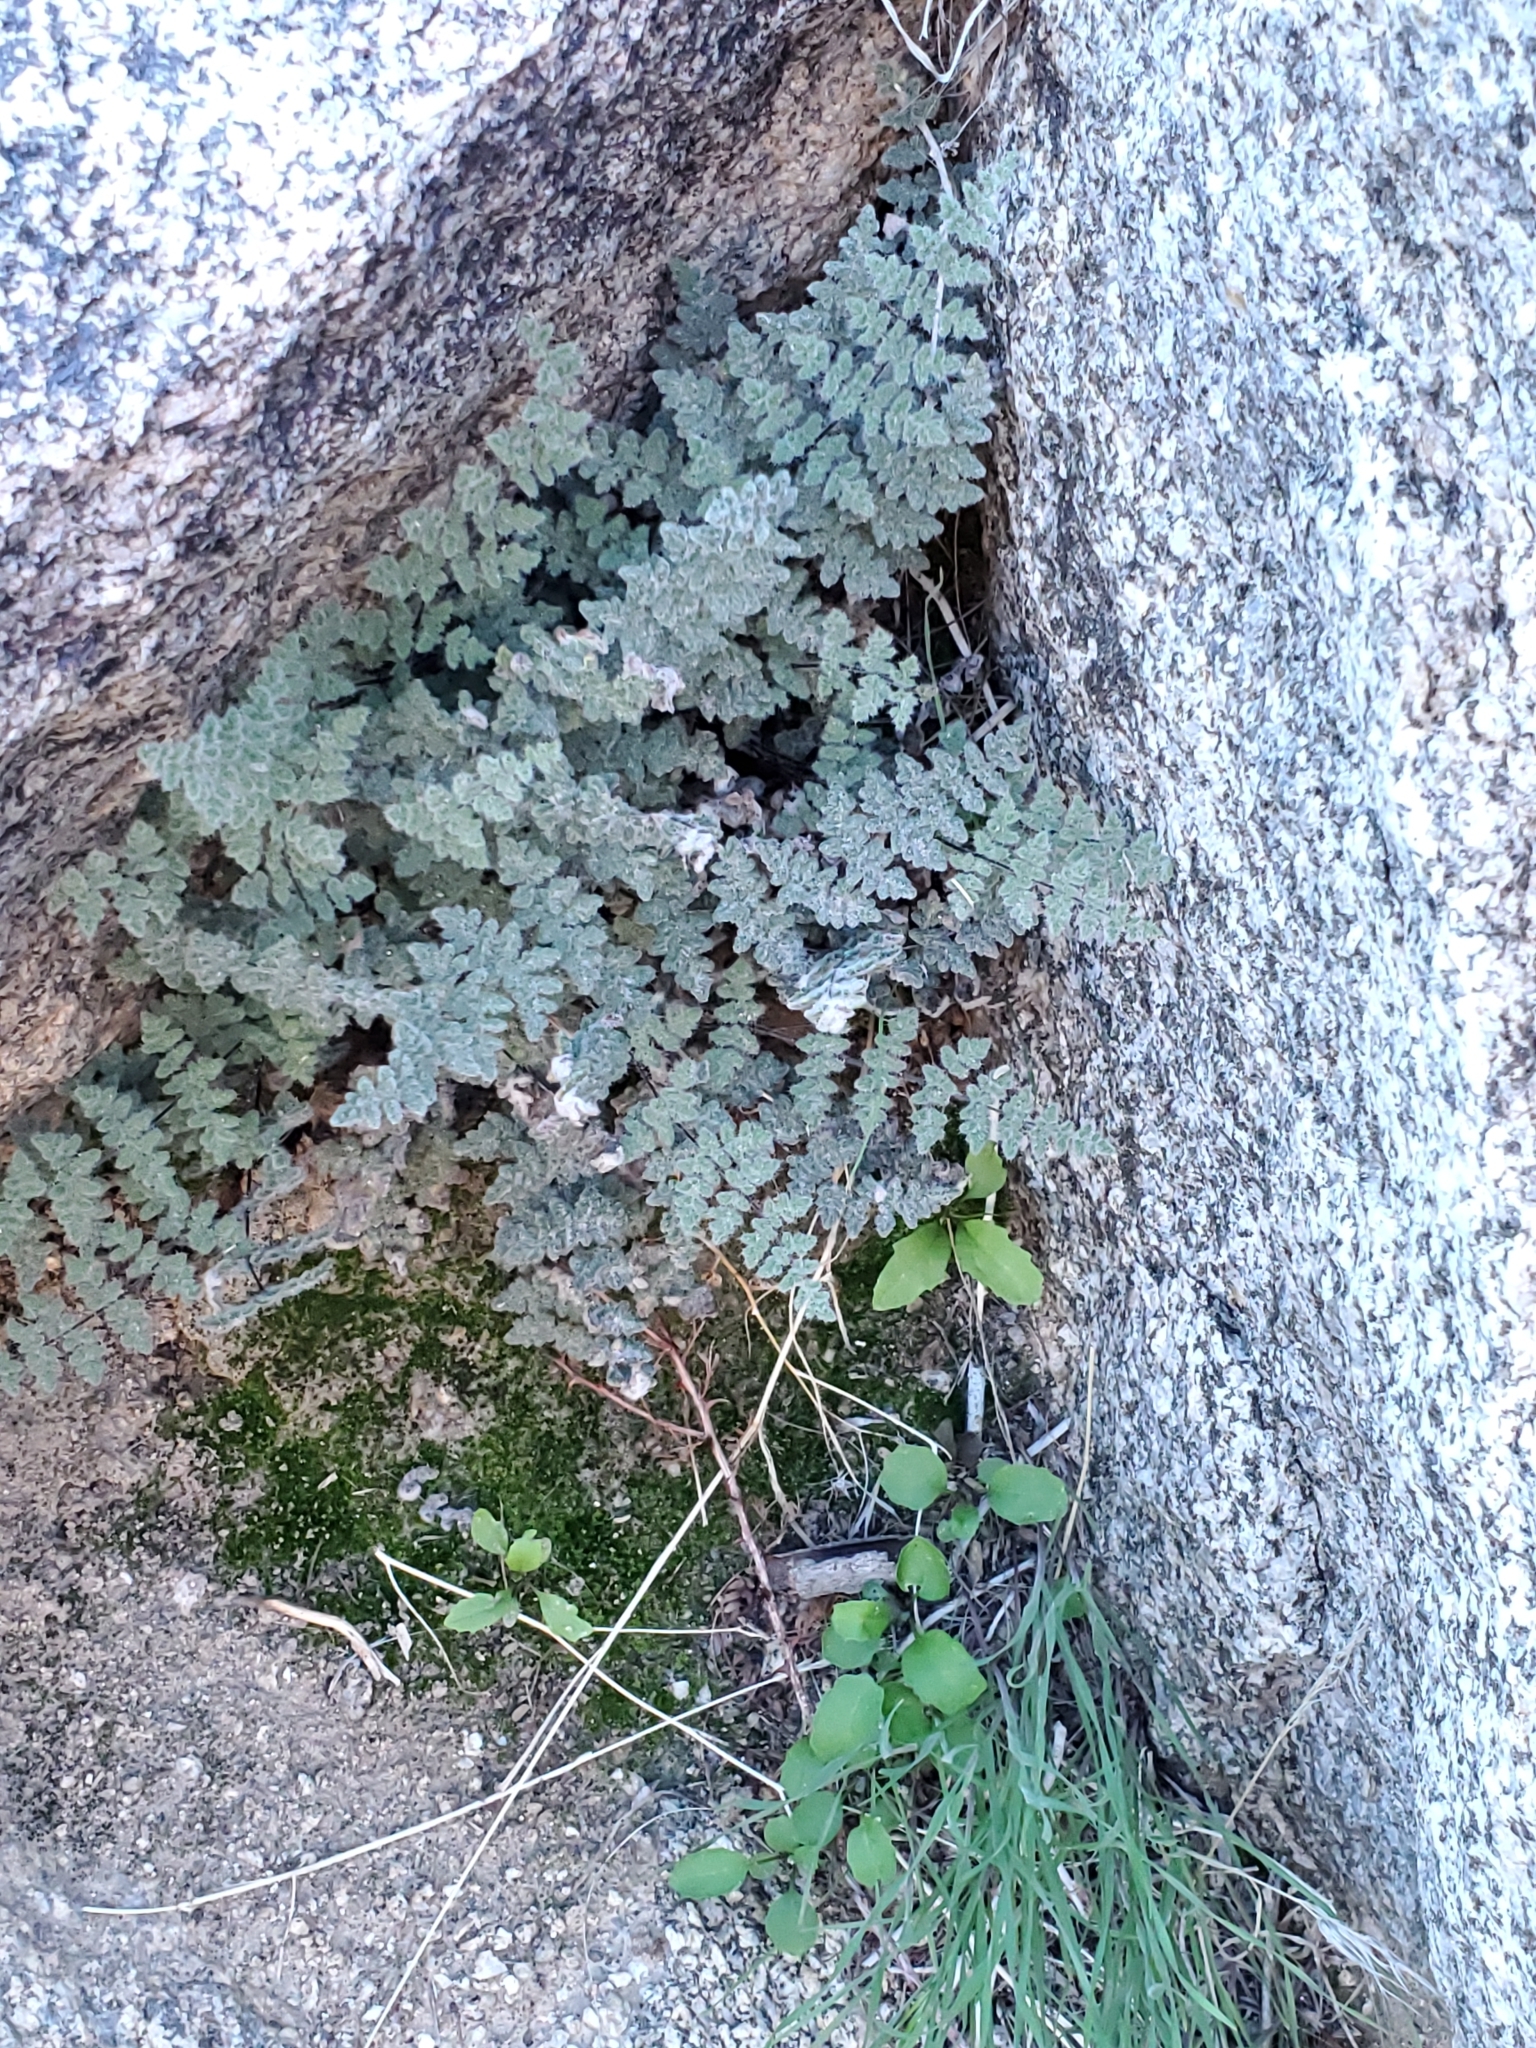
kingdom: Plantae
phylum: Tracheophyta
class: Polypodiopsida
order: Polypodiales
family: Pteridaceae
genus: Myriopteris
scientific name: Myriopteris parryi
